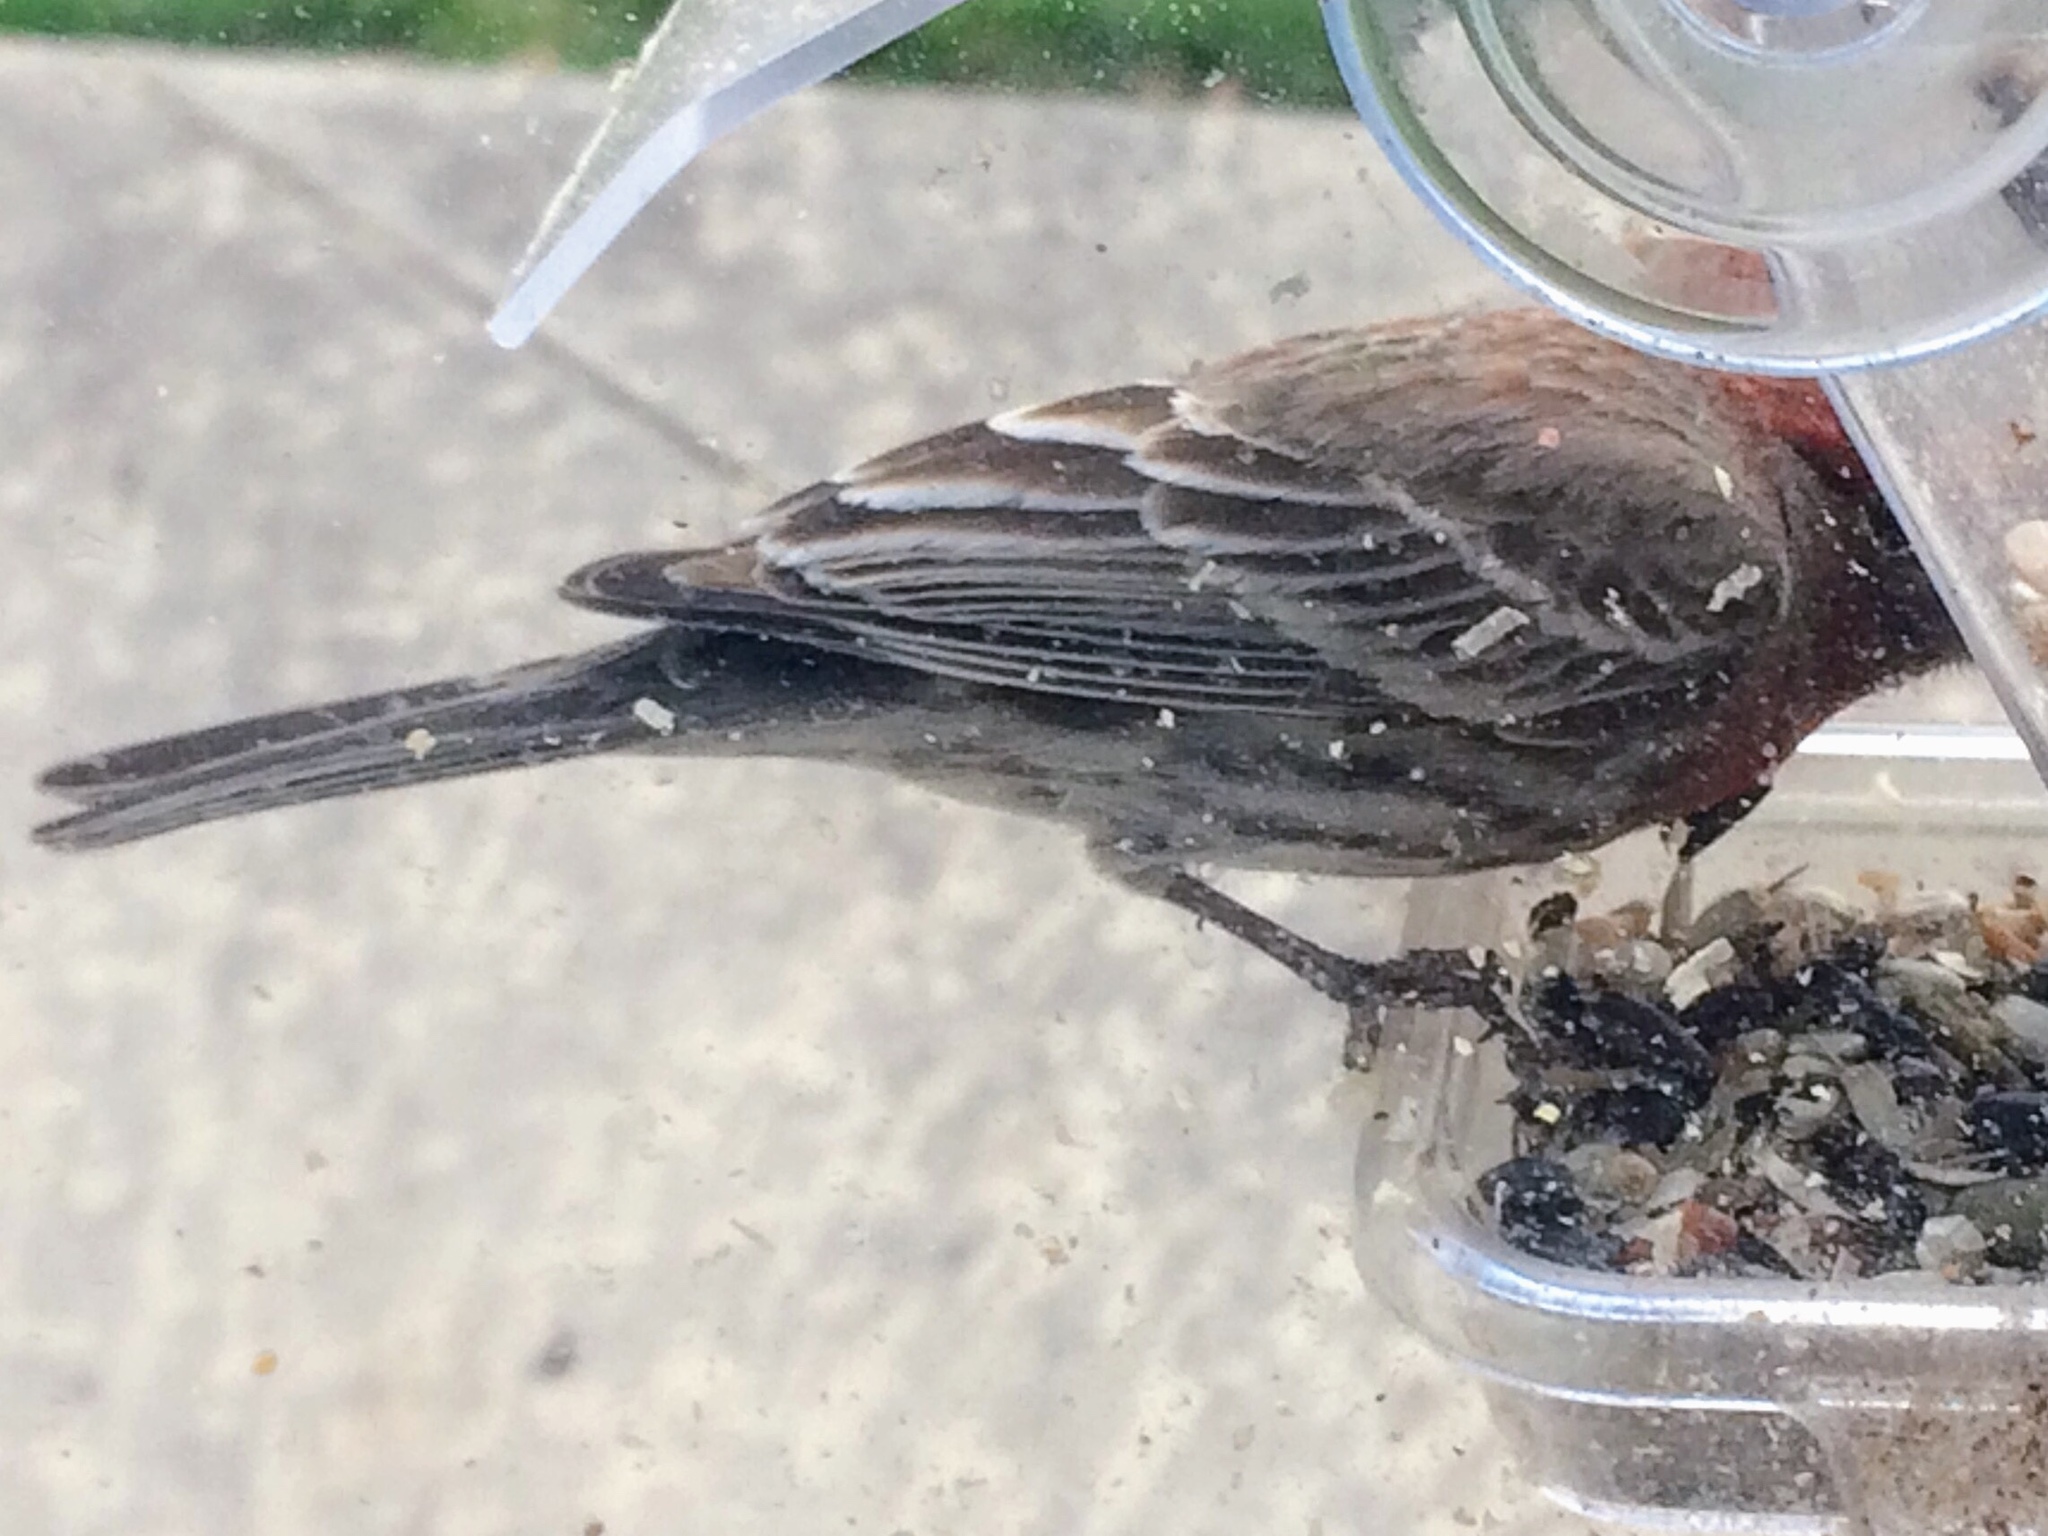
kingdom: Animalia
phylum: Chordata
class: Aves
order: Passeriformes
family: Fringillidae
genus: Haemorhous
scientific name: Haemorhous mexicanus
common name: House finch
